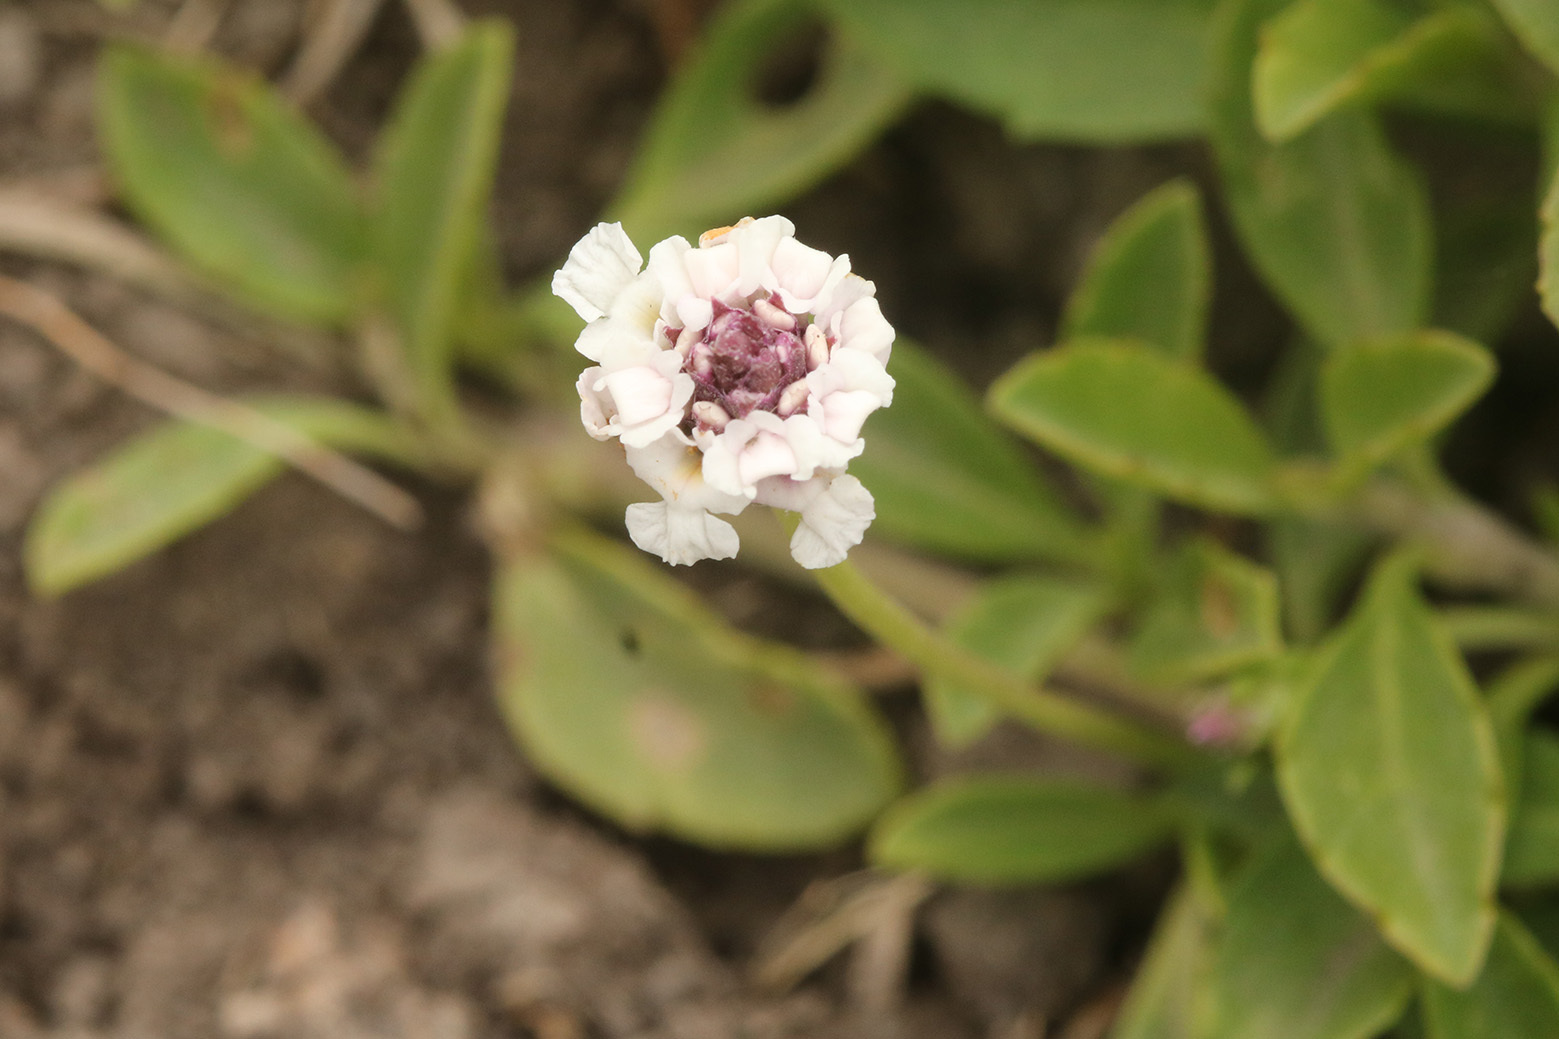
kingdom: Plantae
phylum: Tracheophyta
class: Magnoliopsida
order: Lamiales
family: Verbenaceae
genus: Phyla
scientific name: Phyla nodiflora
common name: Frogfruit
